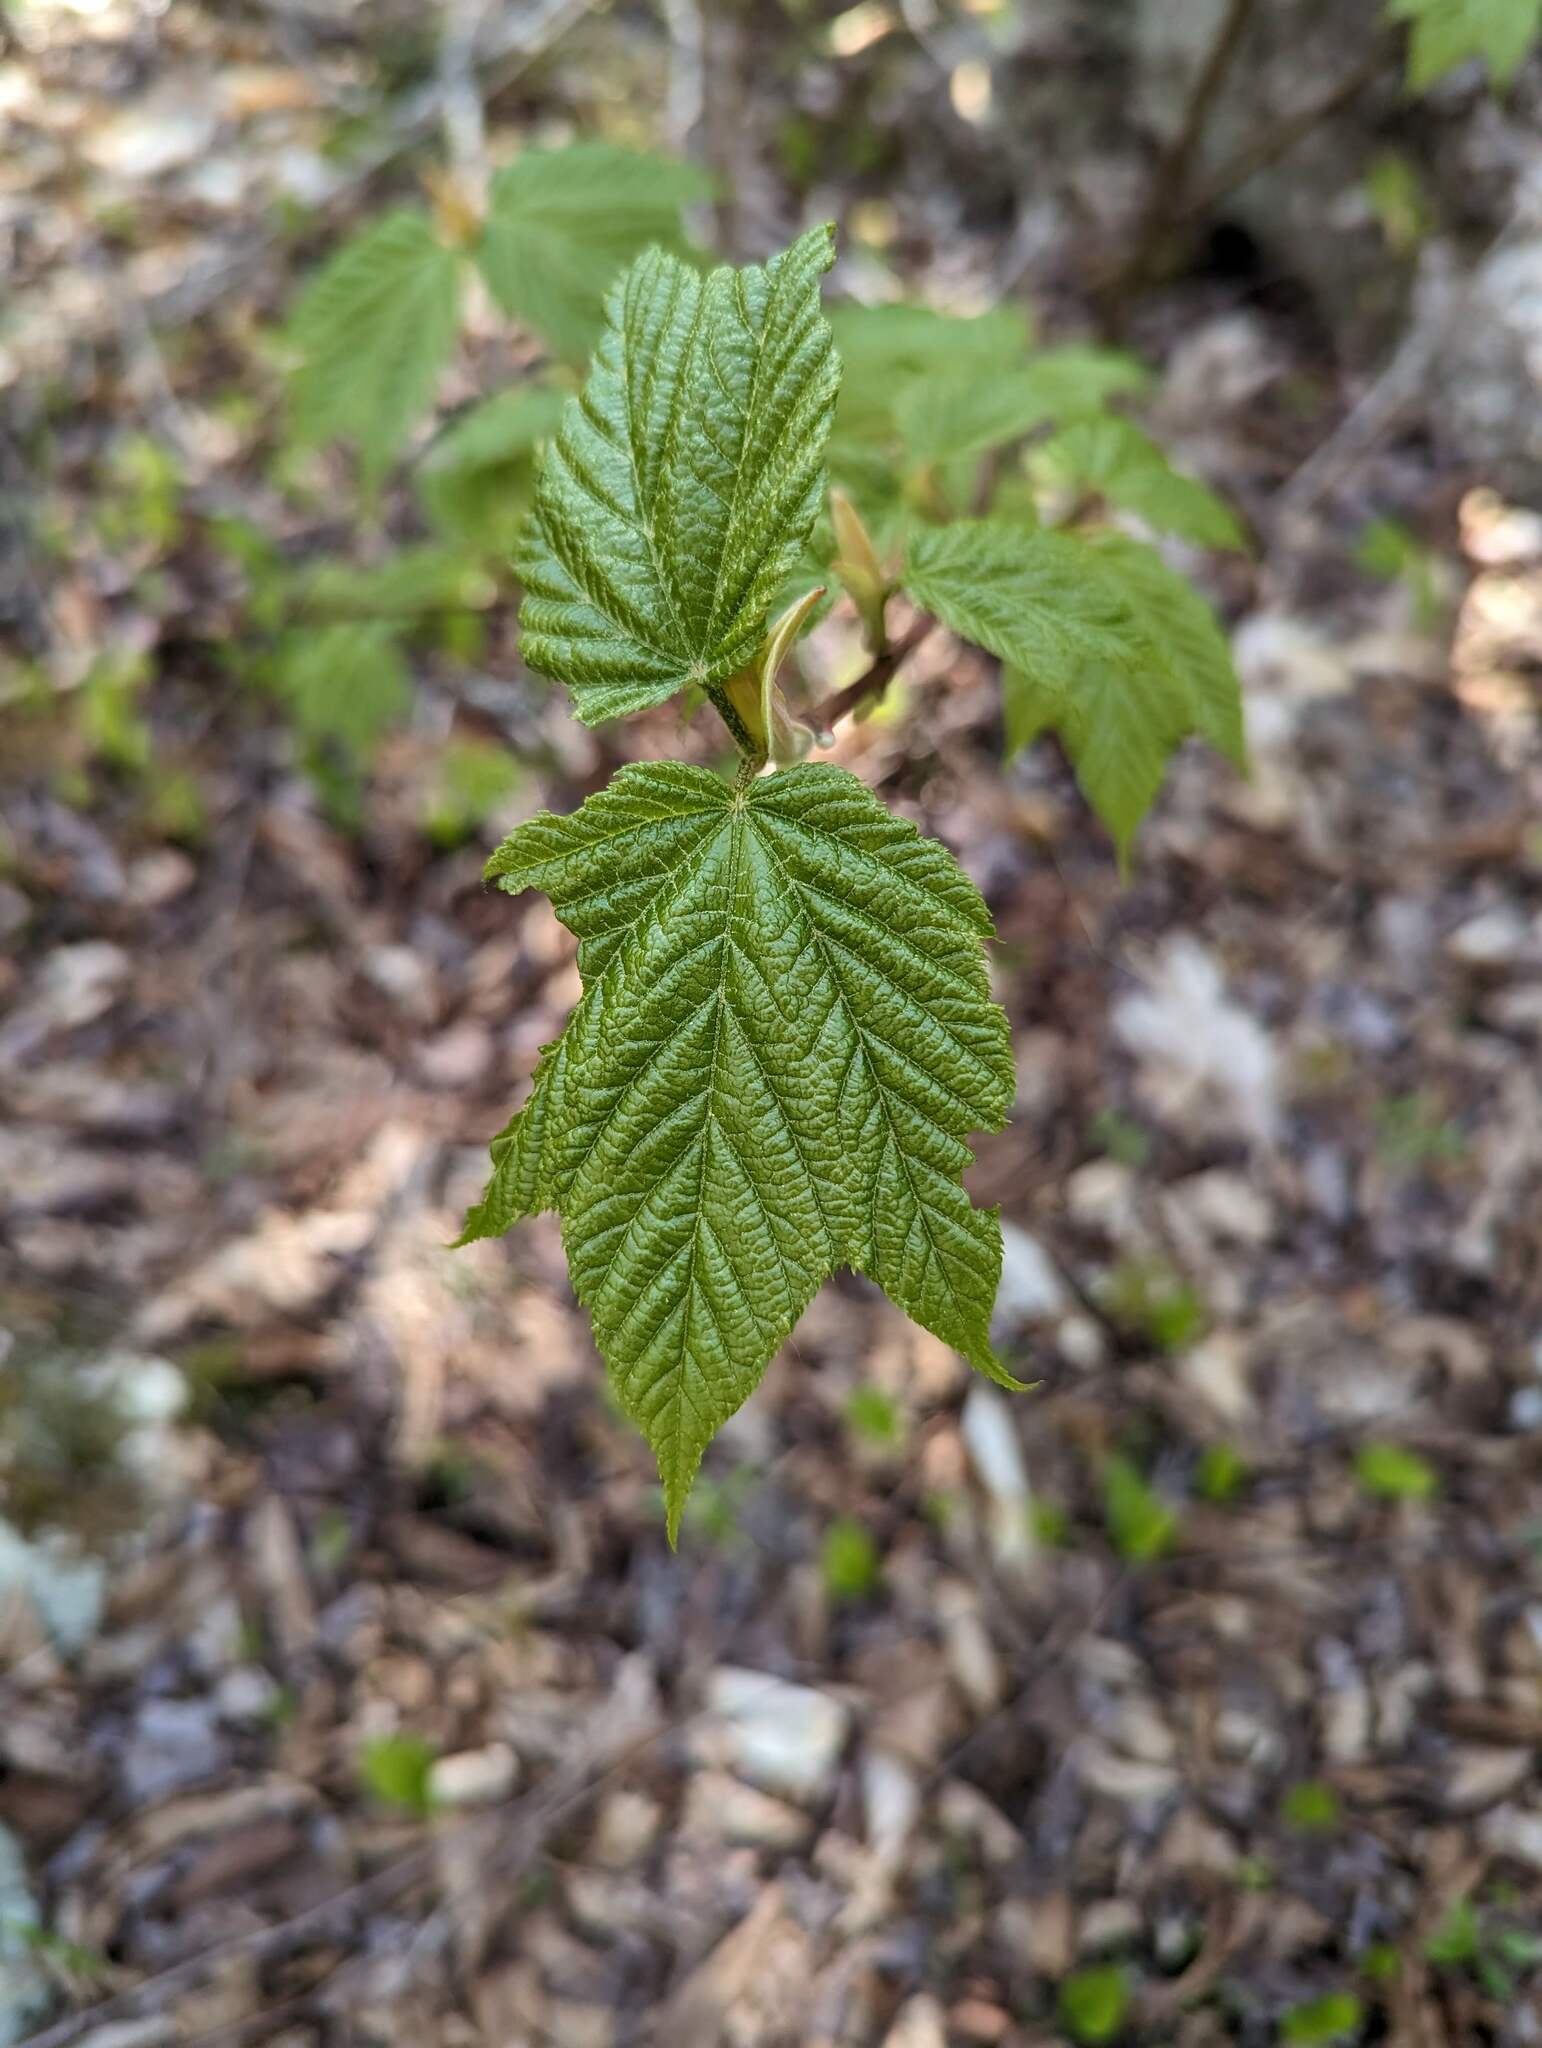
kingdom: Plantae
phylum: Tracheophyta
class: Magnoliopsida
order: Sapindales
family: Sapindaceae
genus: Acer
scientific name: Acer pensylvanicum
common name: Moosewood
